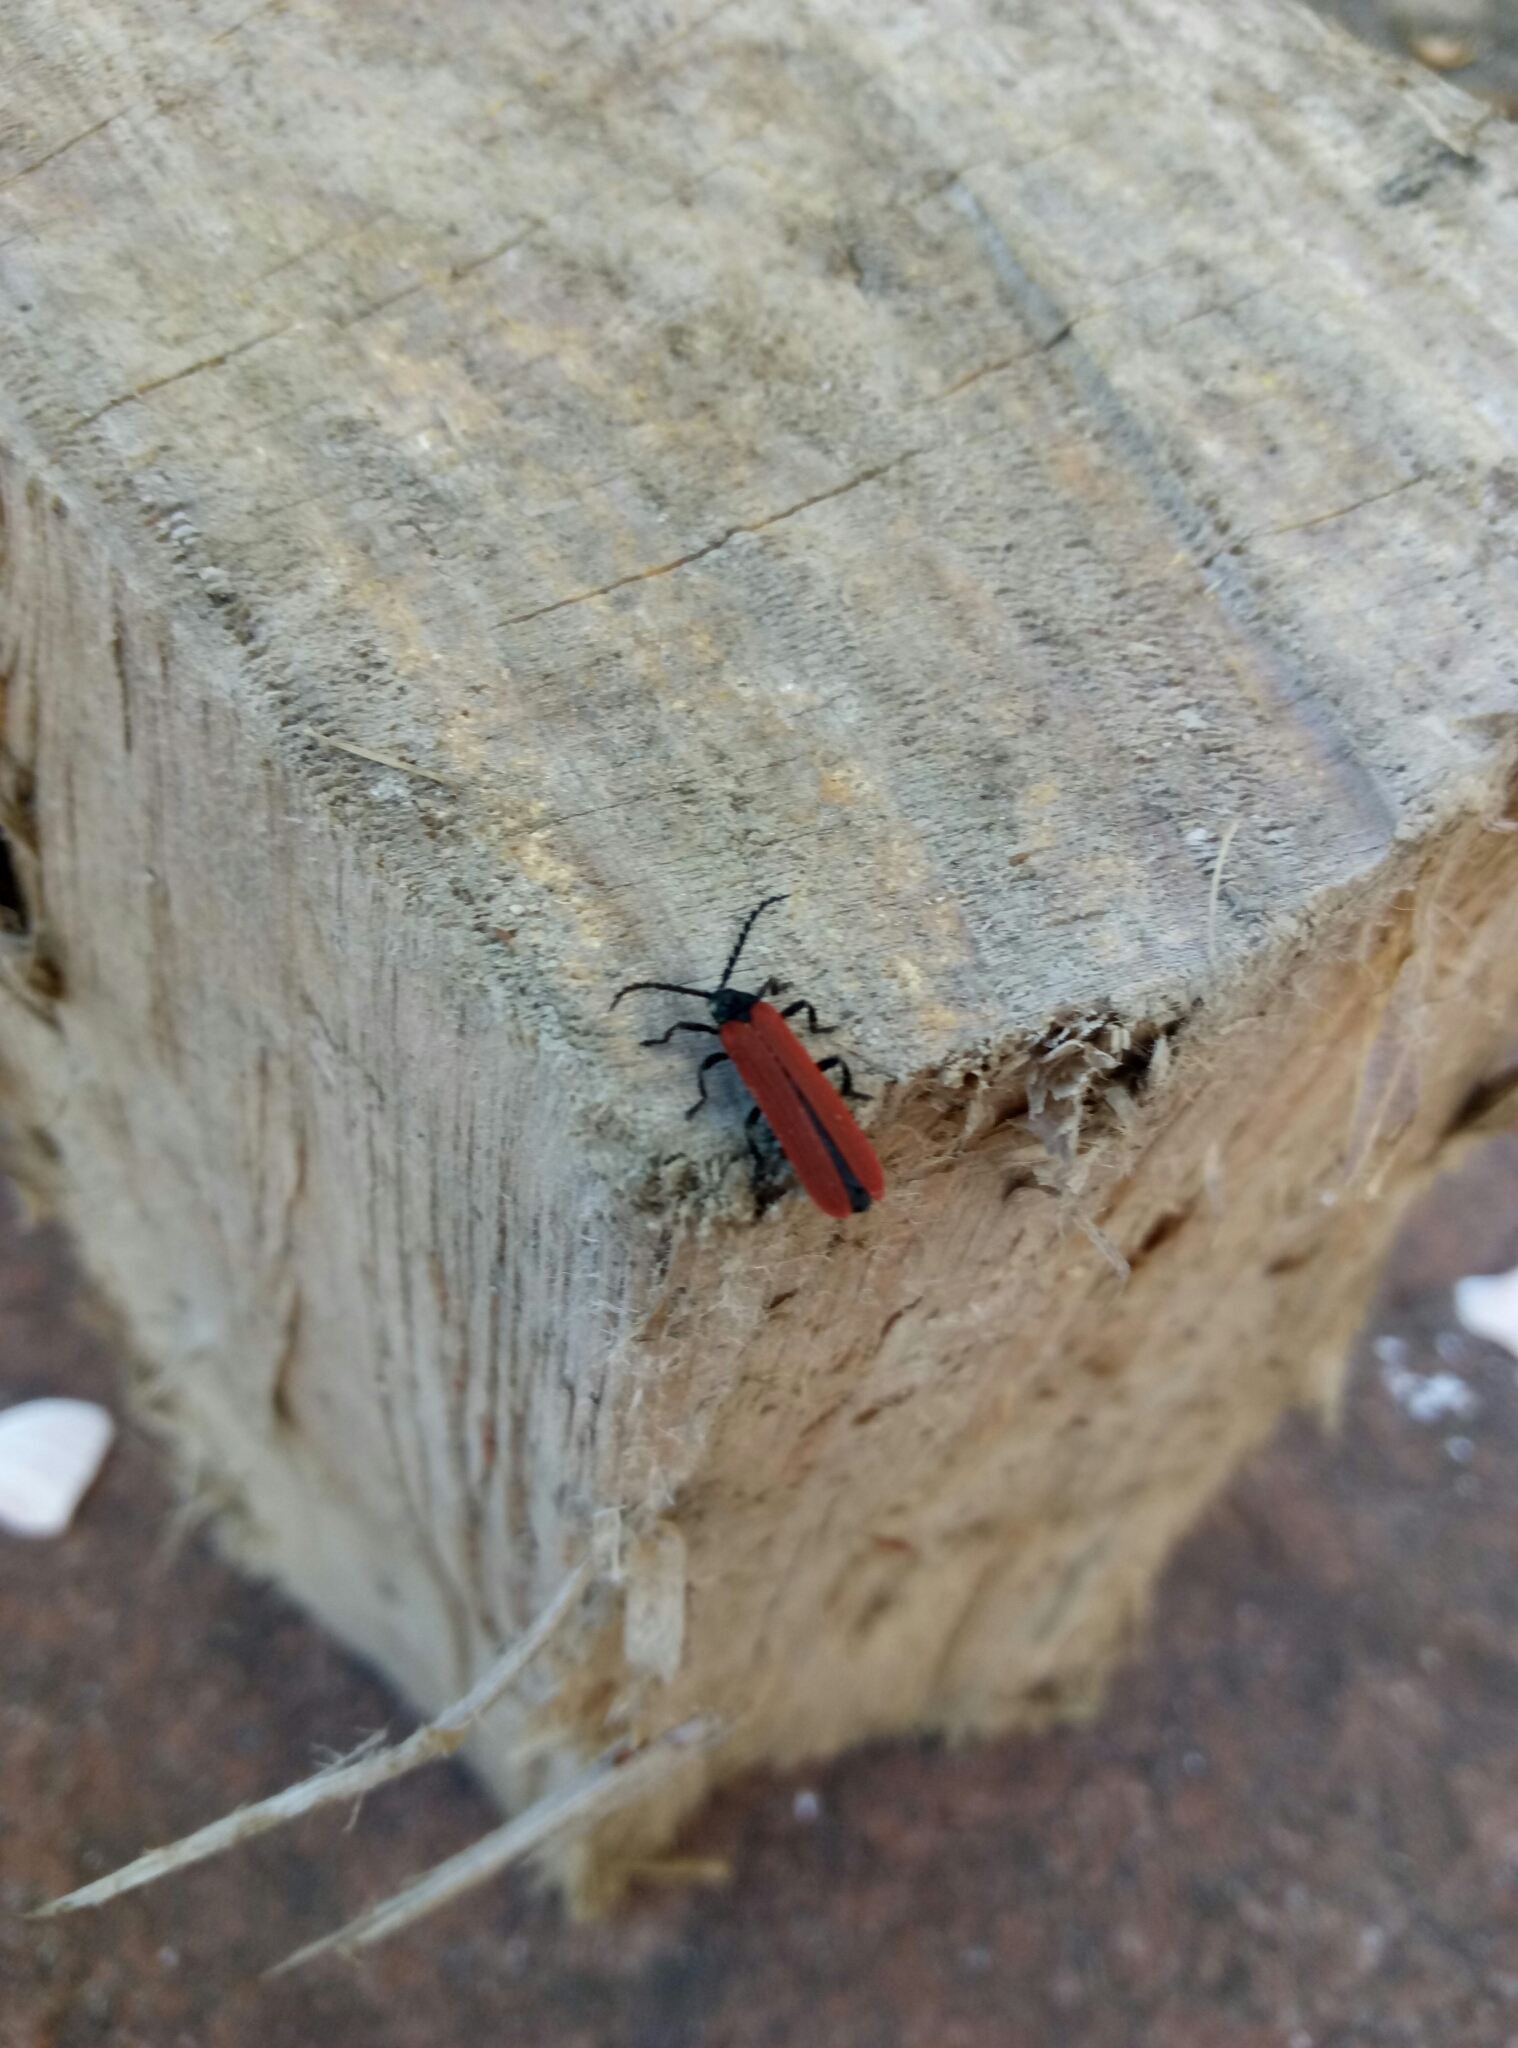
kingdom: Animalia
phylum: Arthropoda
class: Insecta
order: Coleoptera
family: Lycidae
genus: Porrostoma
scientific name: Porrostoma rufipenne
